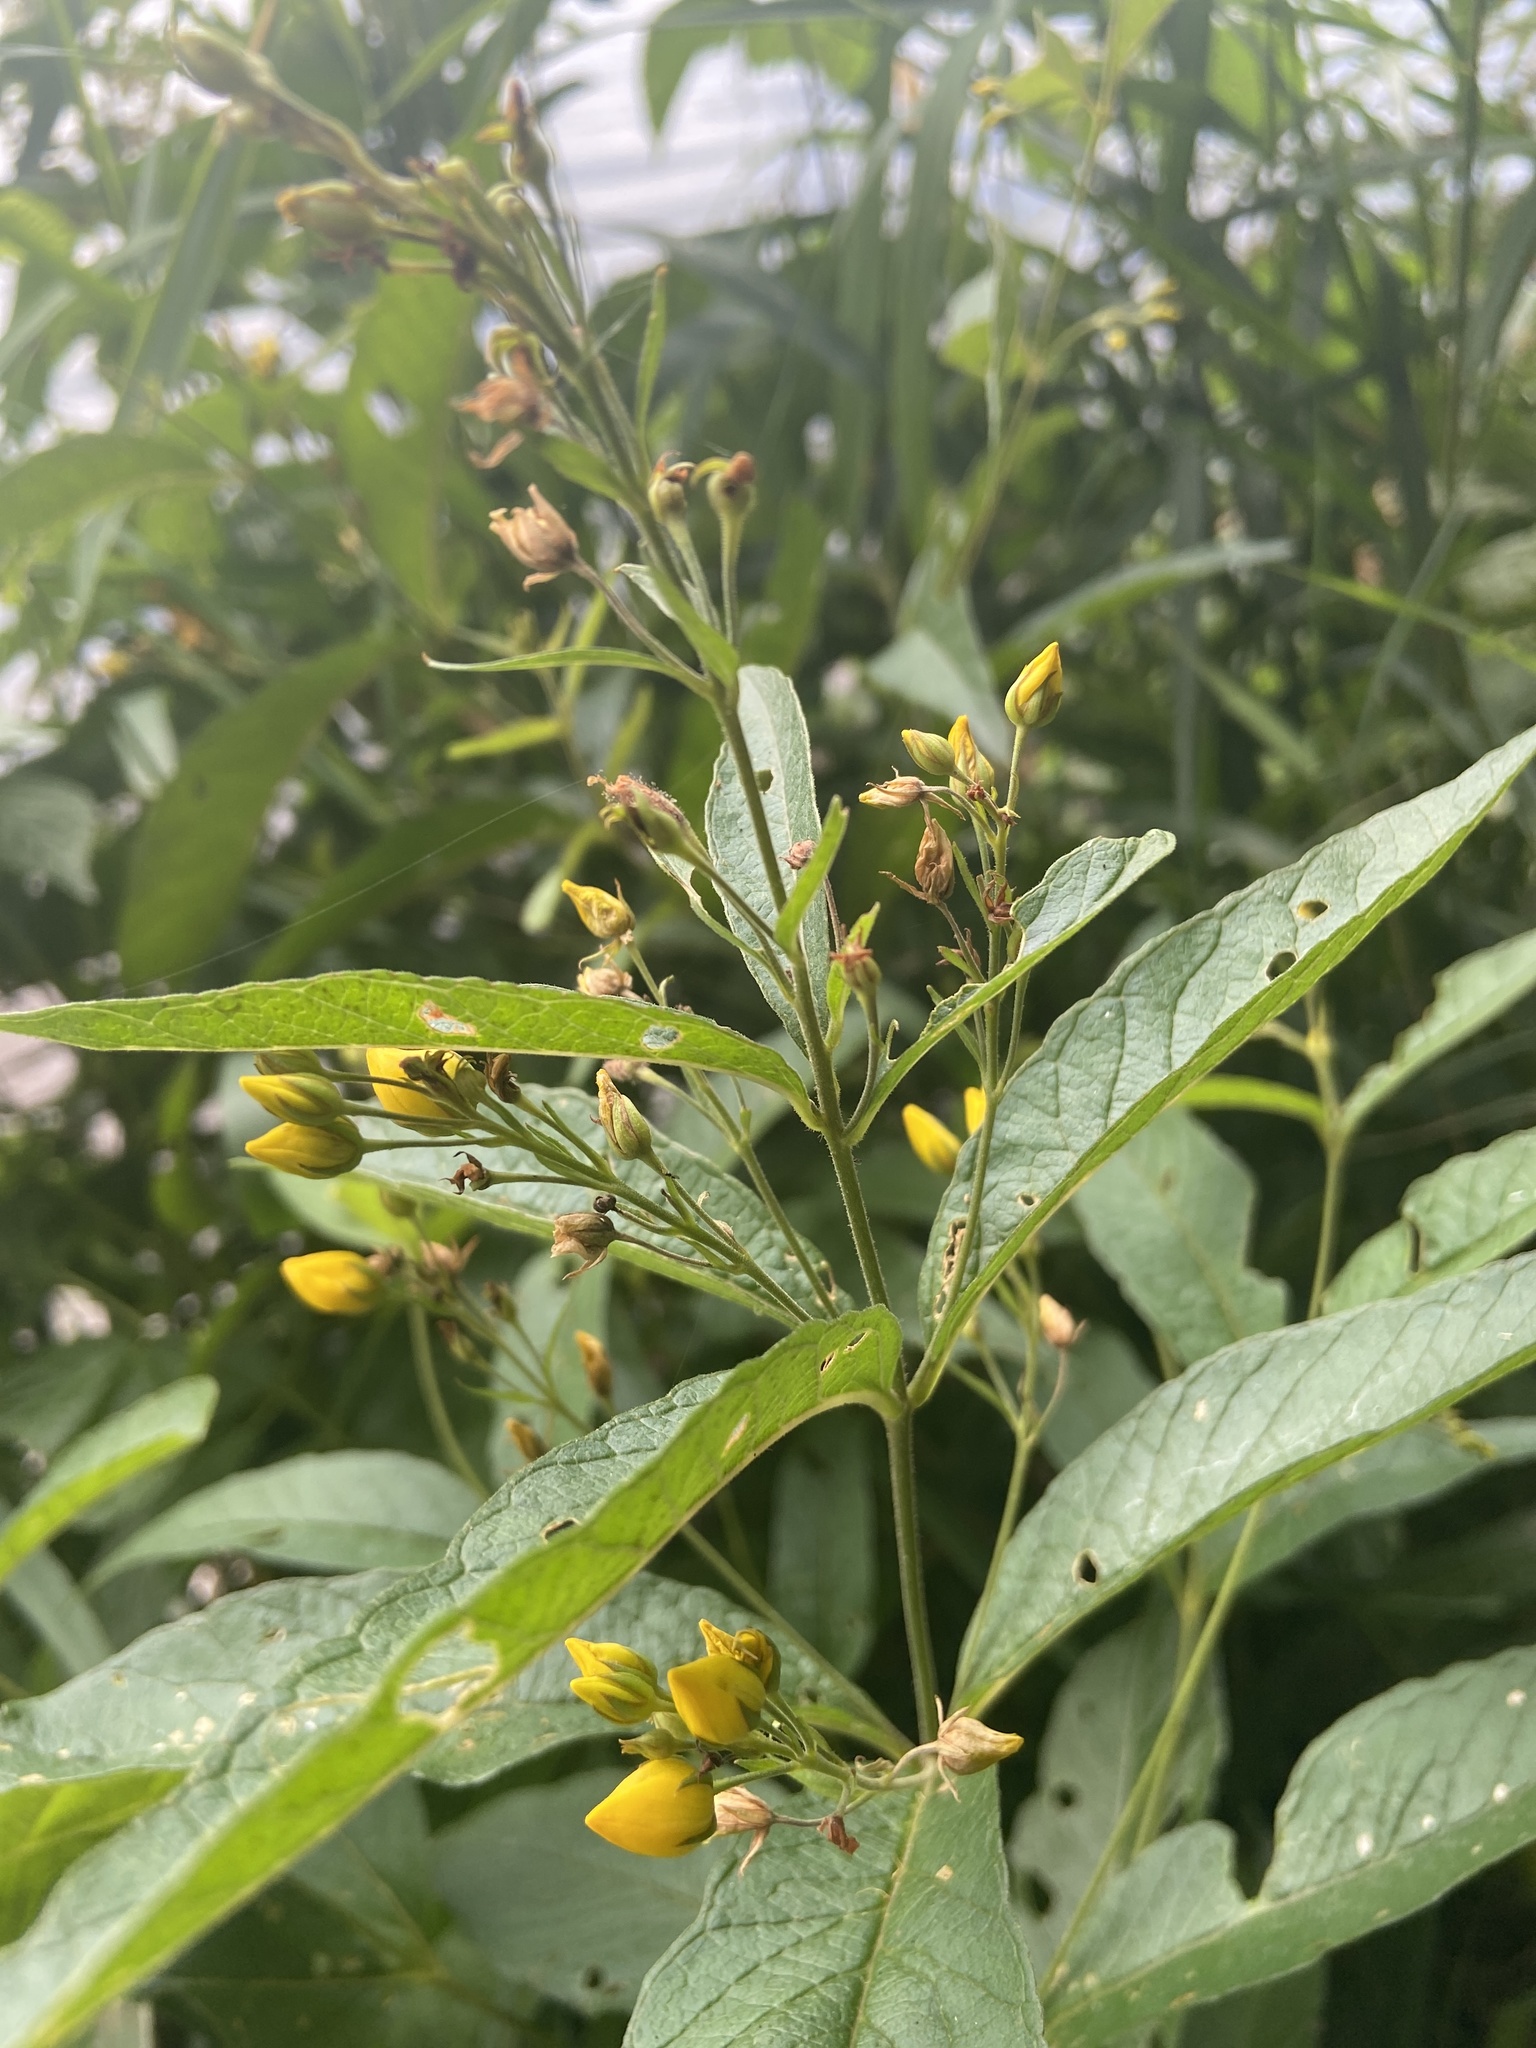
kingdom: Plantae
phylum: Tracheophyta
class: Magnoliopsida
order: Ericales
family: Primulaceae
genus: Lysimachia
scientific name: Lysimachia vulgaris
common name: Yellow loosestrife
